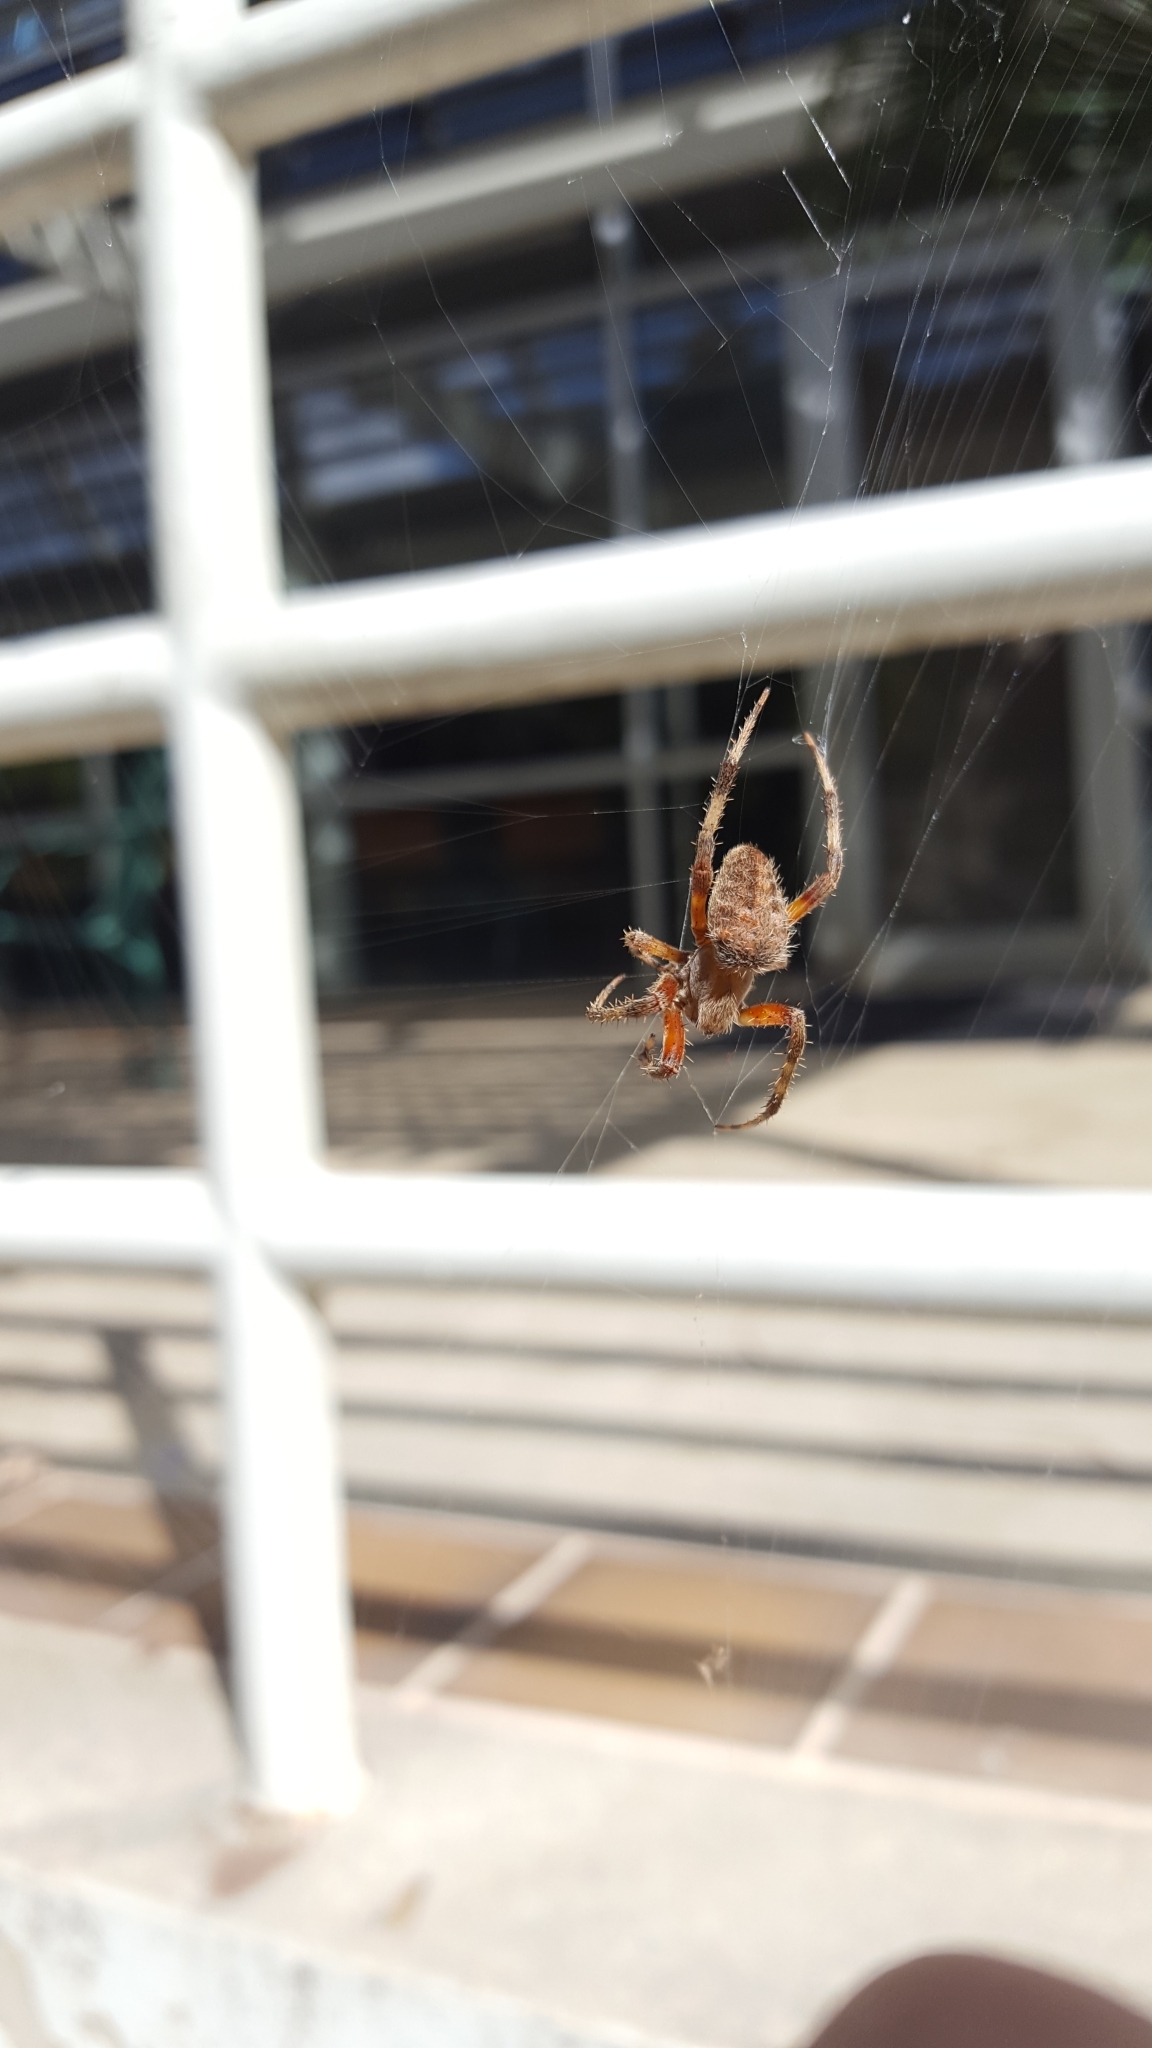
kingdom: Animalia
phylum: Arthropoda
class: Arachnida
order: Araneae
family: Araneidae
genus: Neoscona
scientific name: Neoscona crucifera
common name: Spotted orbweaver
